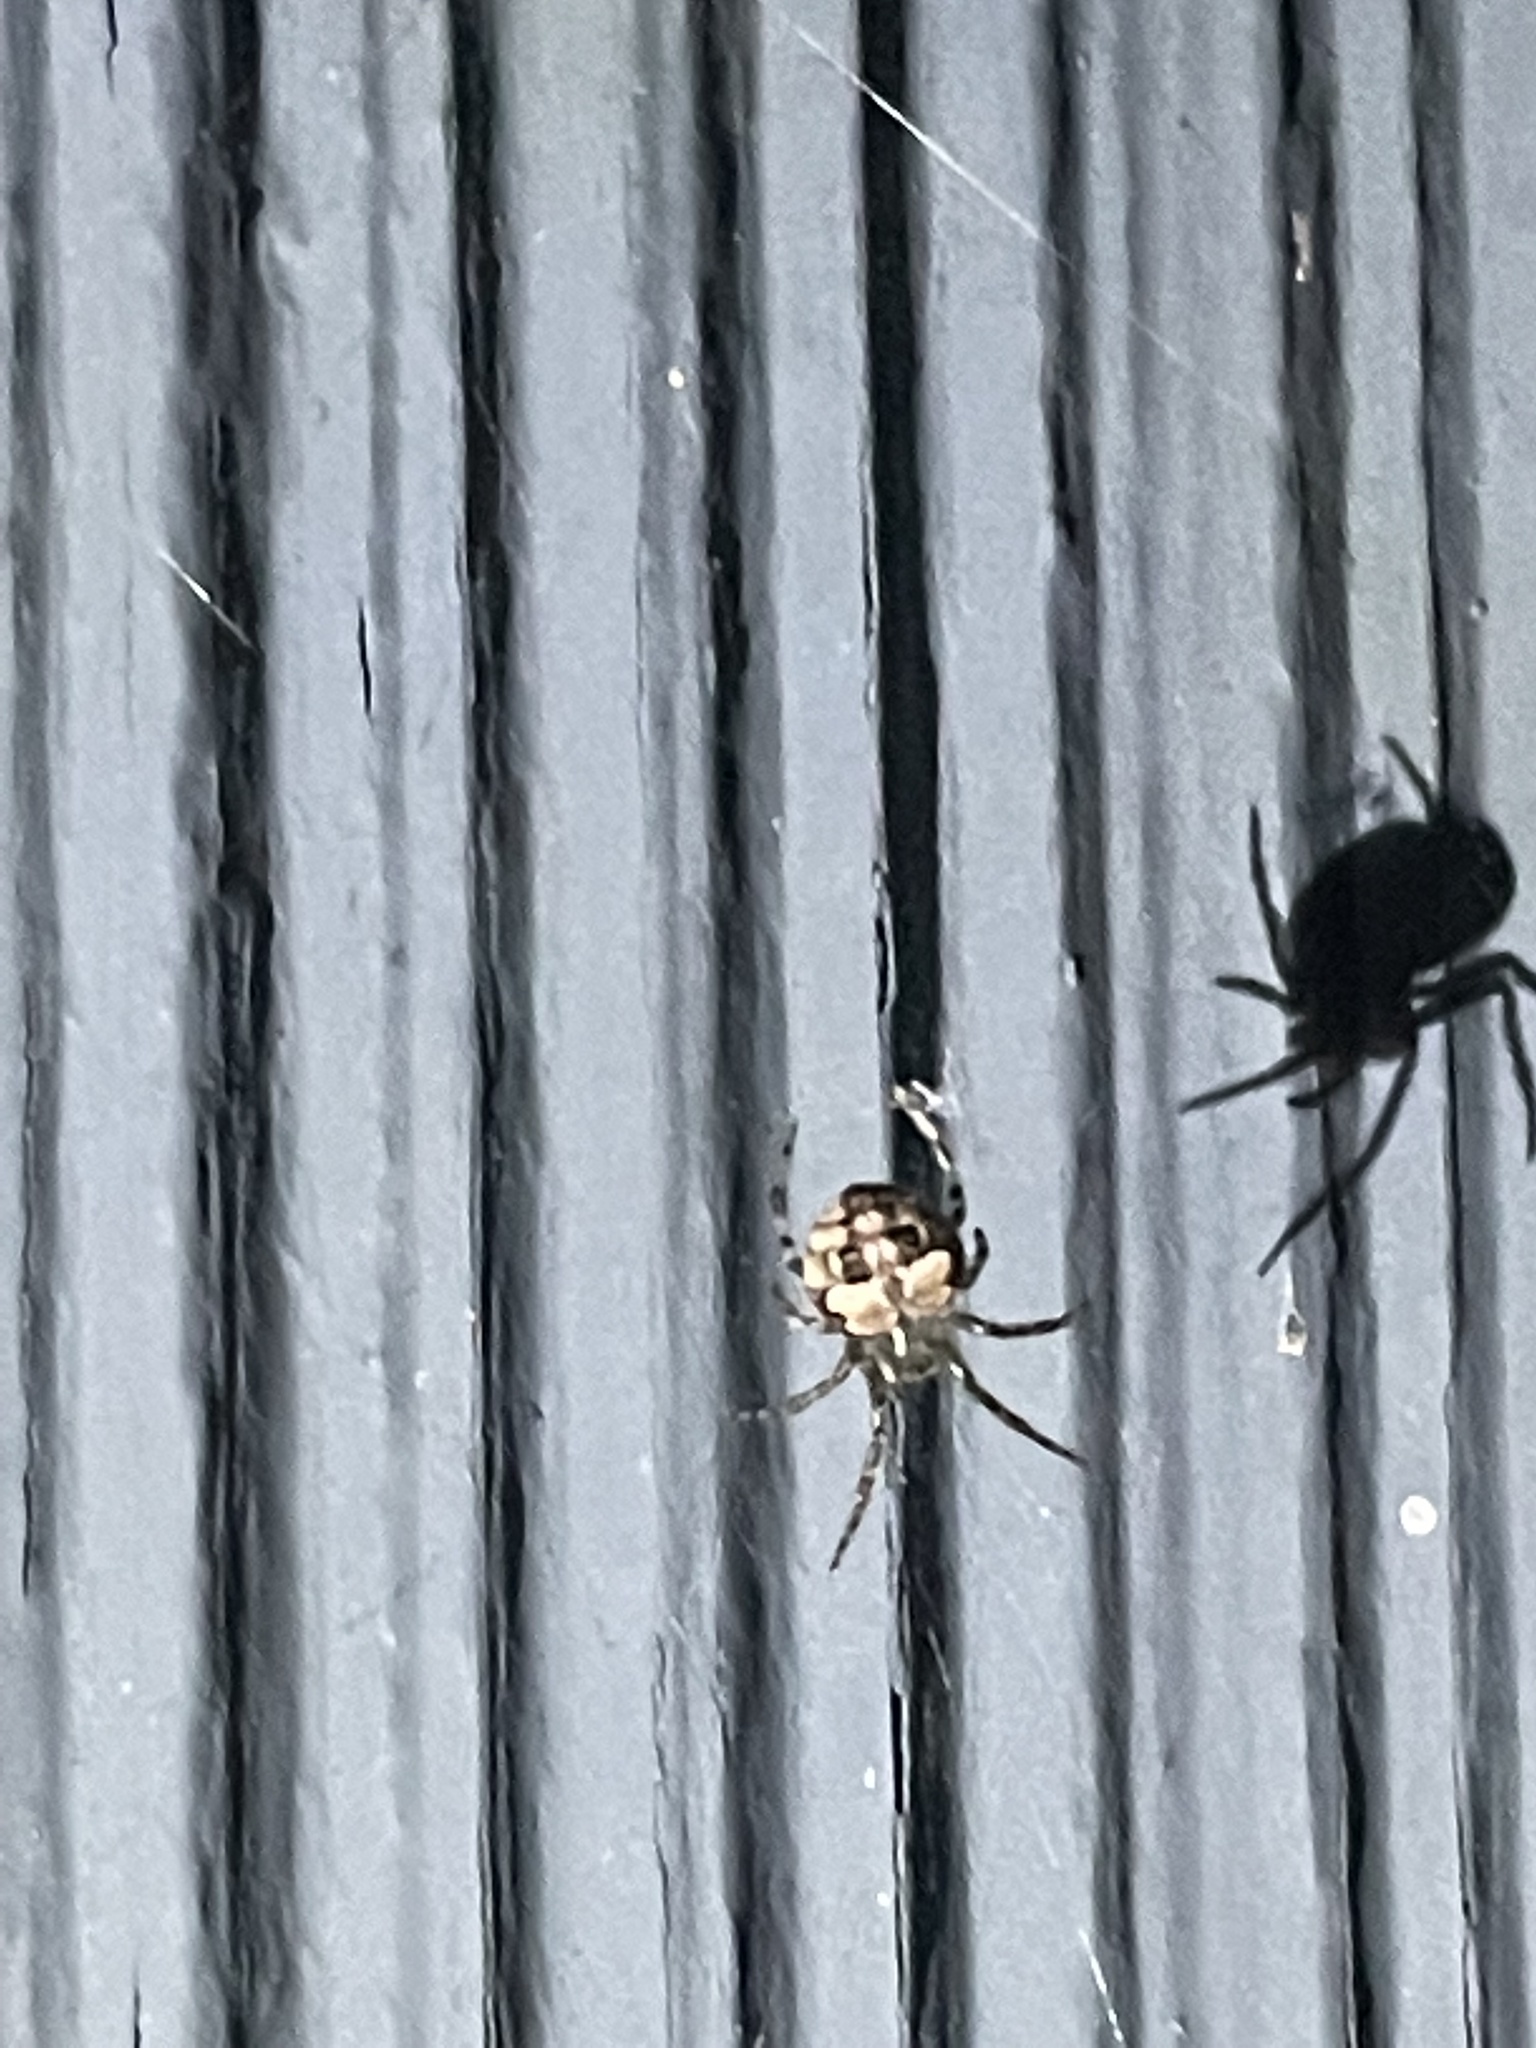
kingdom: Animalia
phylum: Arthropoda
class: Arachnida
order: Araneae
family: Araneidae
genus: Araneus
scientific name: Araneus pegnia
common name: Orb weavers
